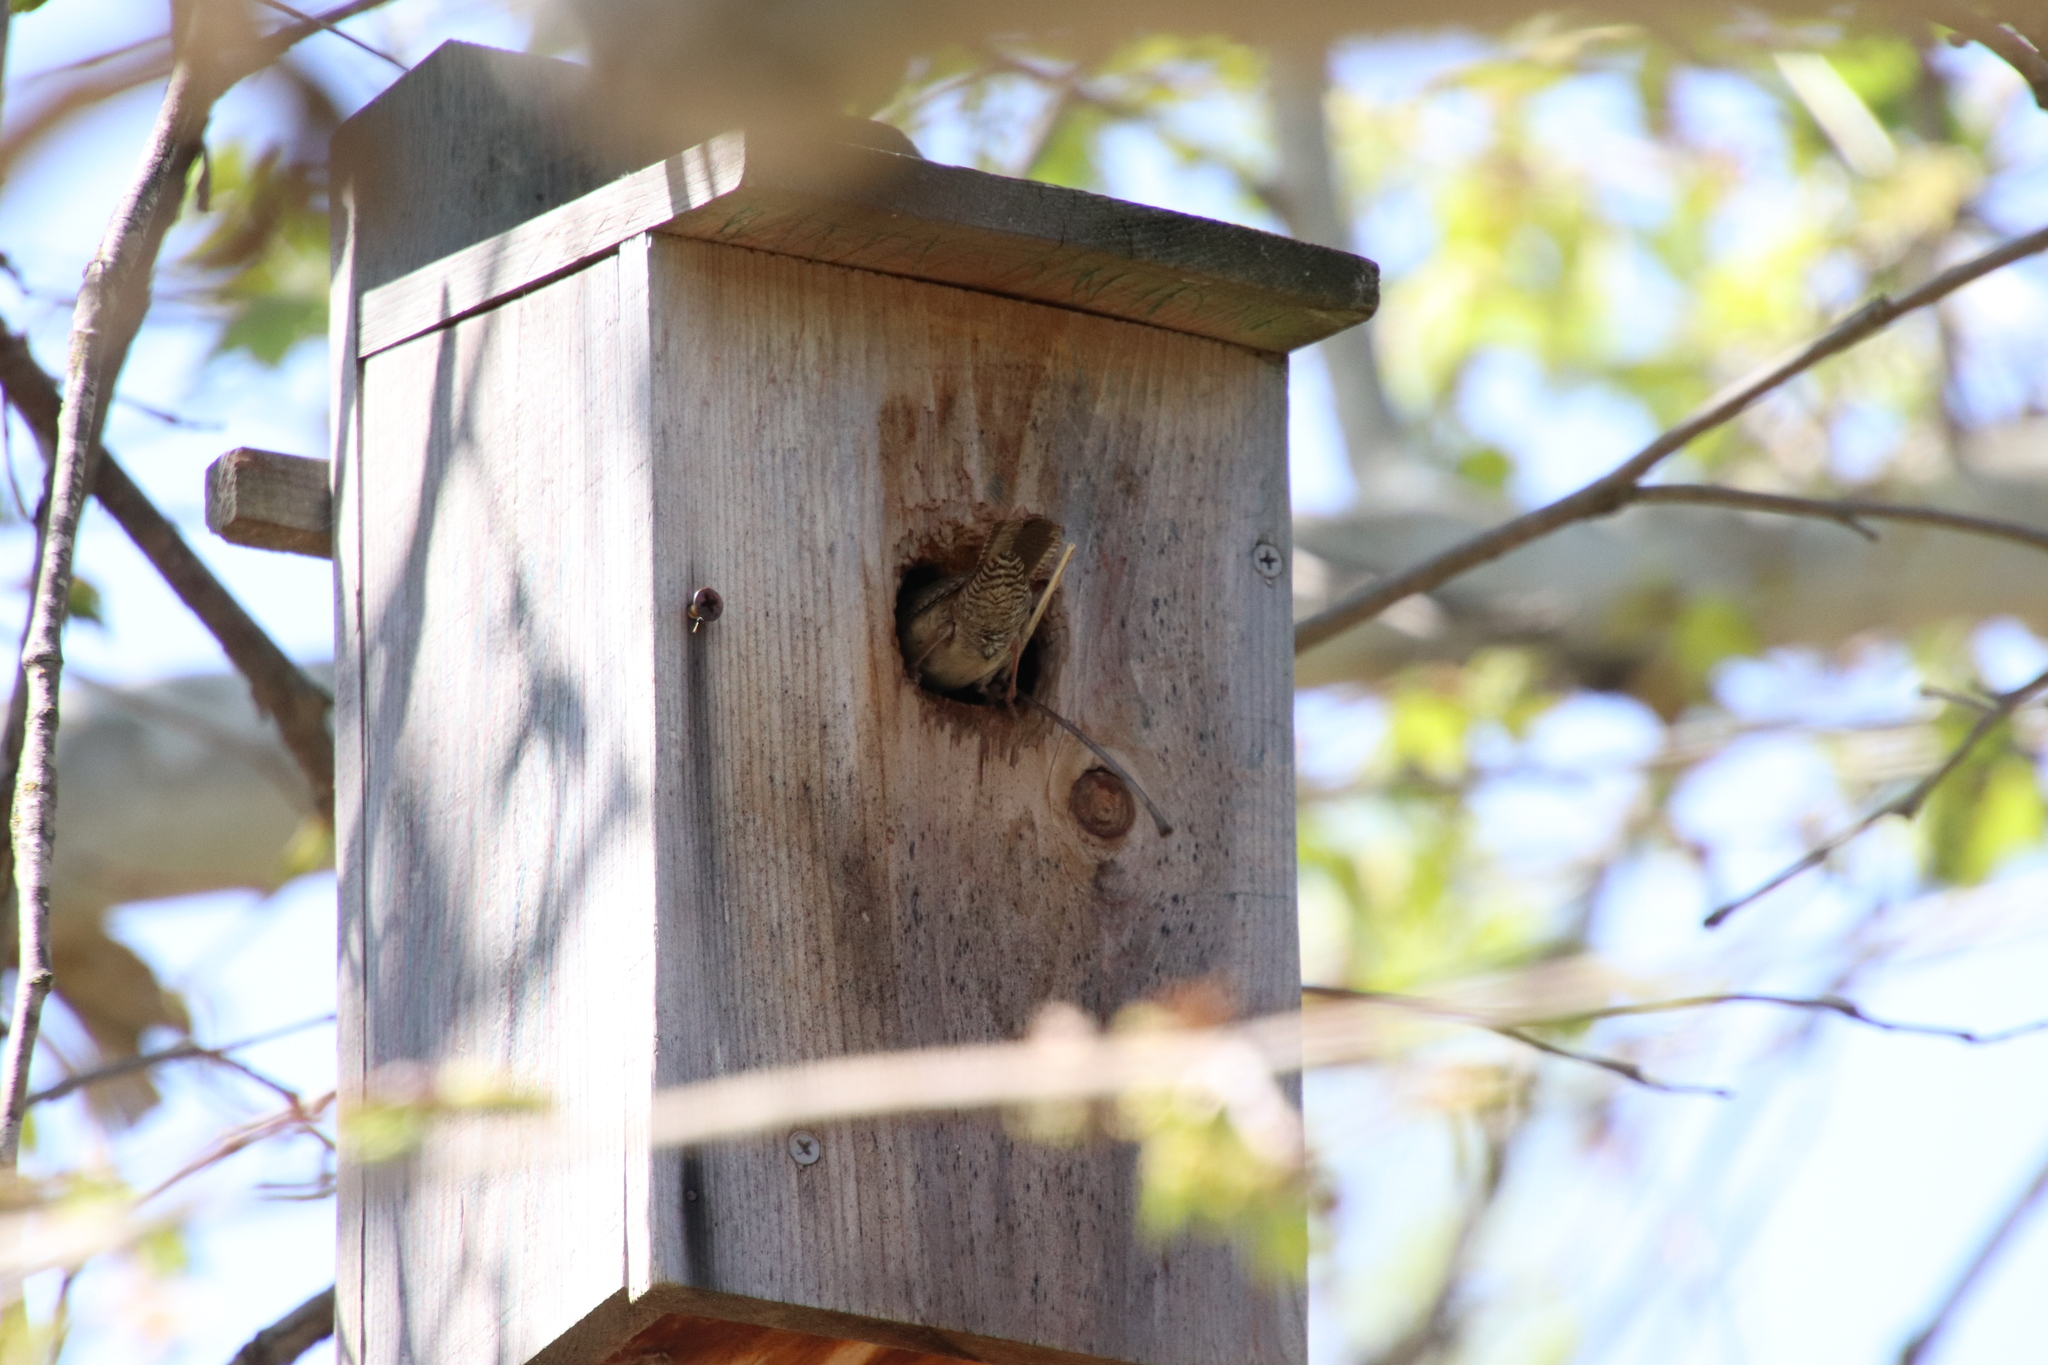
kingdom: Animalia
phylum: Chordata
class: Aves
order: Passeriformes
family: Troglodytidae
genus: Troglodytes
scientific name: Troglodytes aedon
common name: House wren
